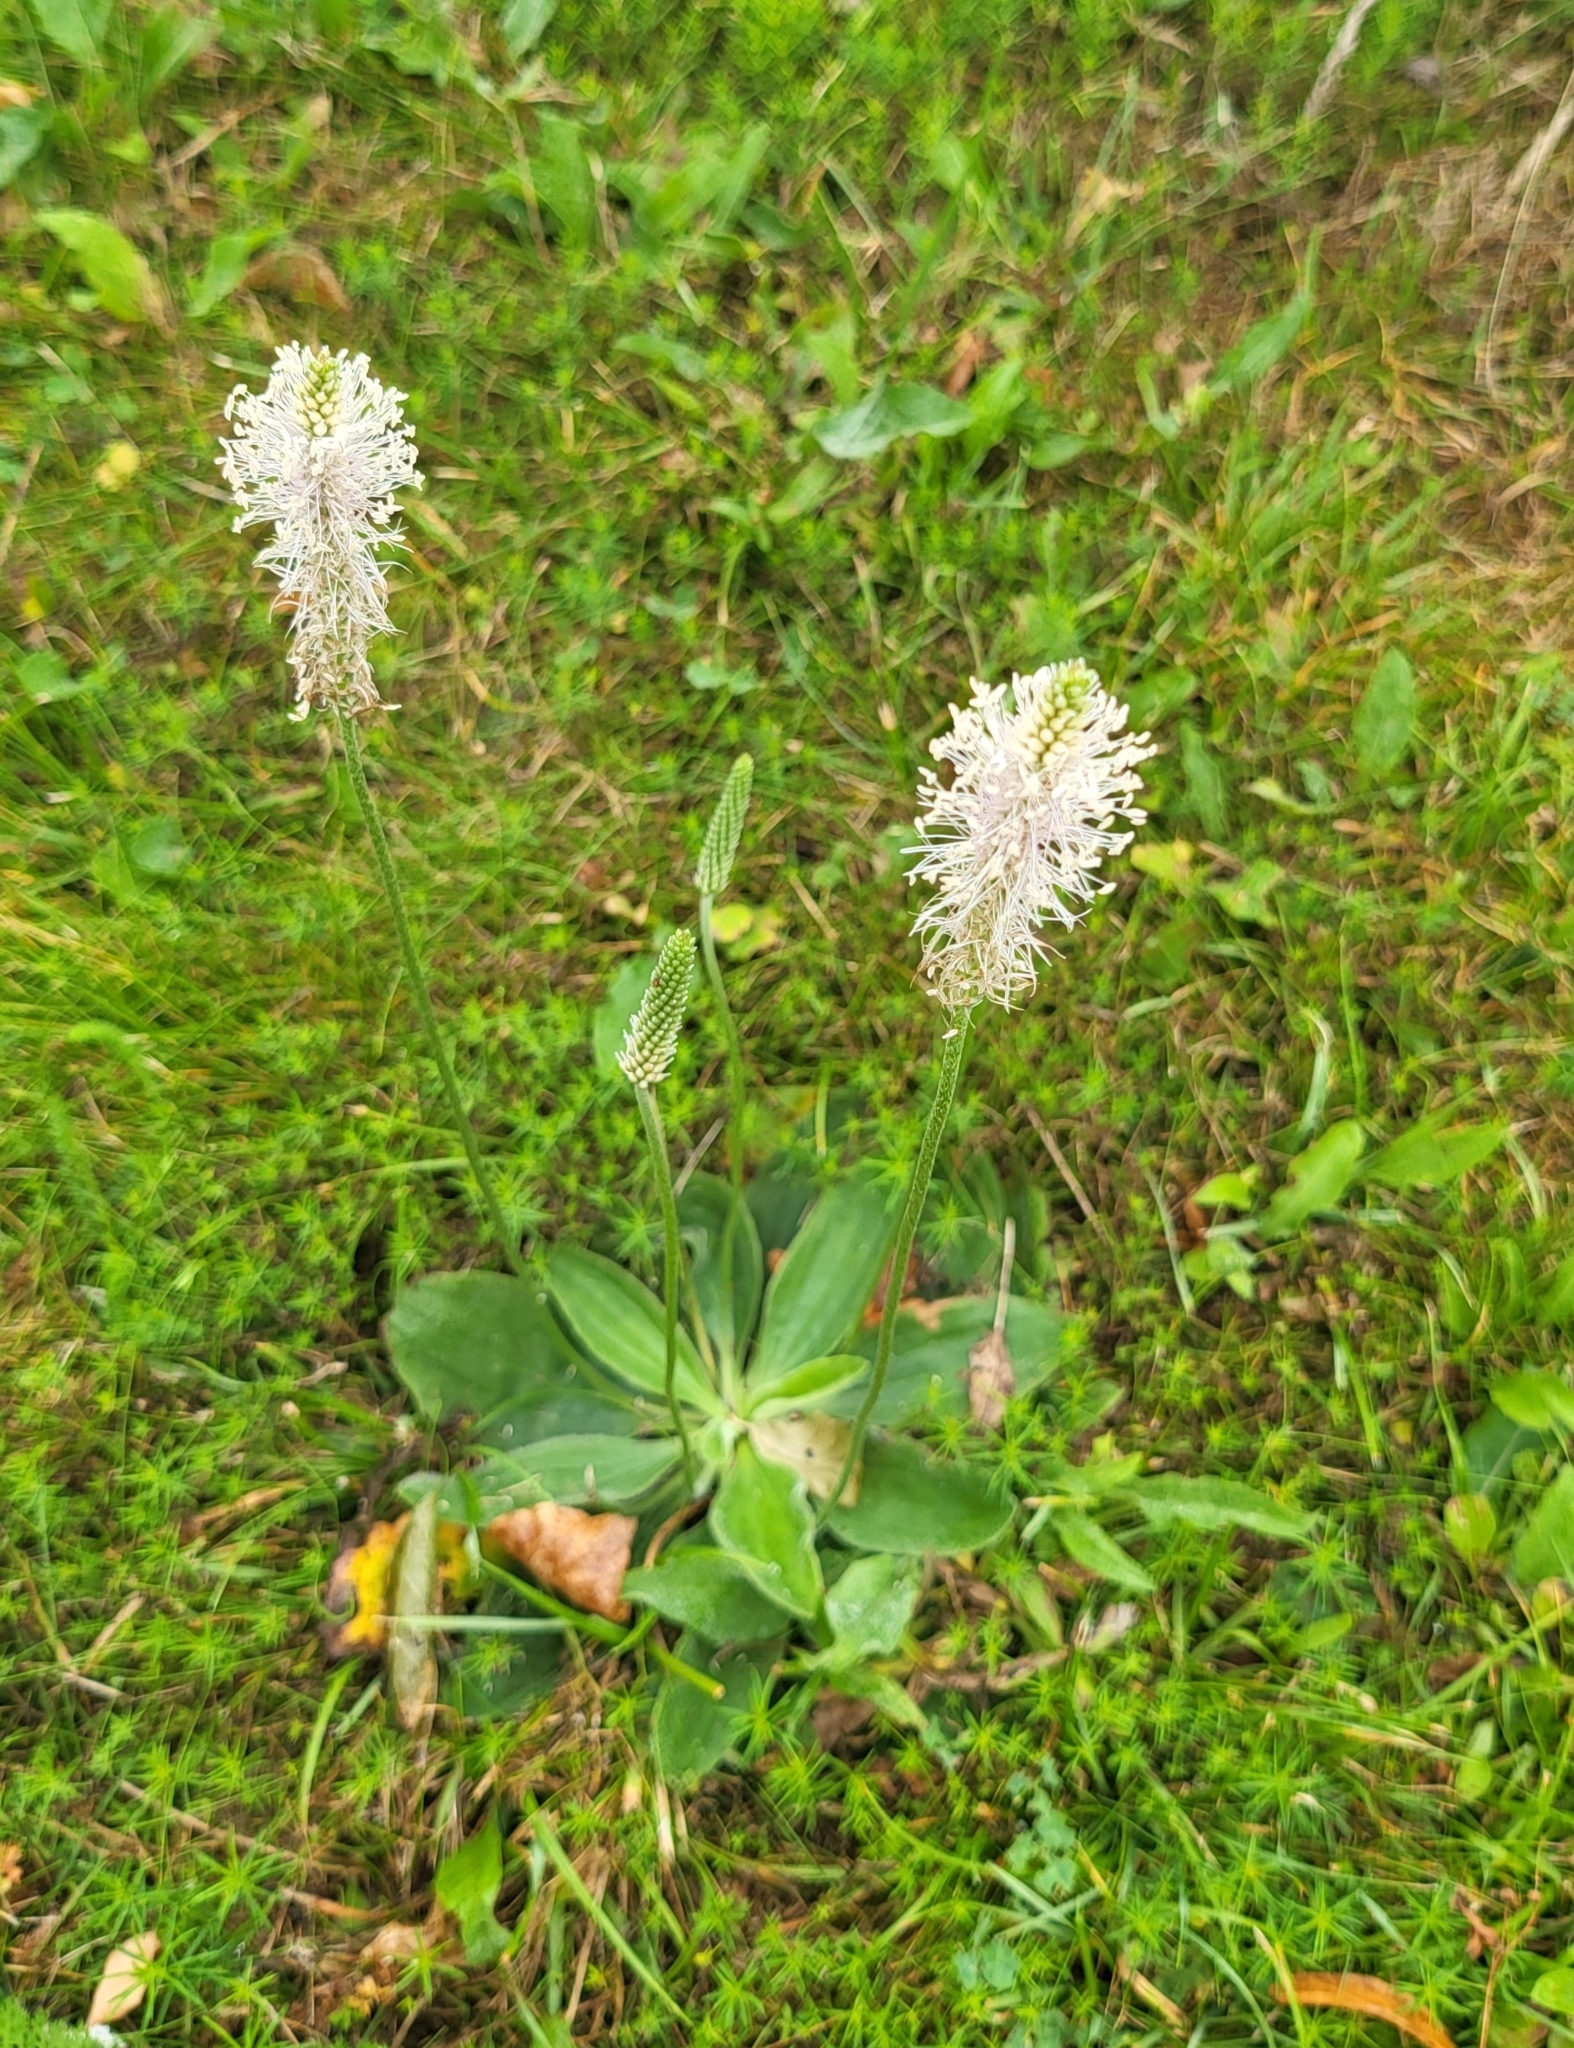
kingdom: Plantae
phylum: Tracheophyta
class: Magnoliopsida
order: Lamiales
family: Plantaginaceae
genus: Plantago
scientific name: Plantago media
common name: Hoary plantain
